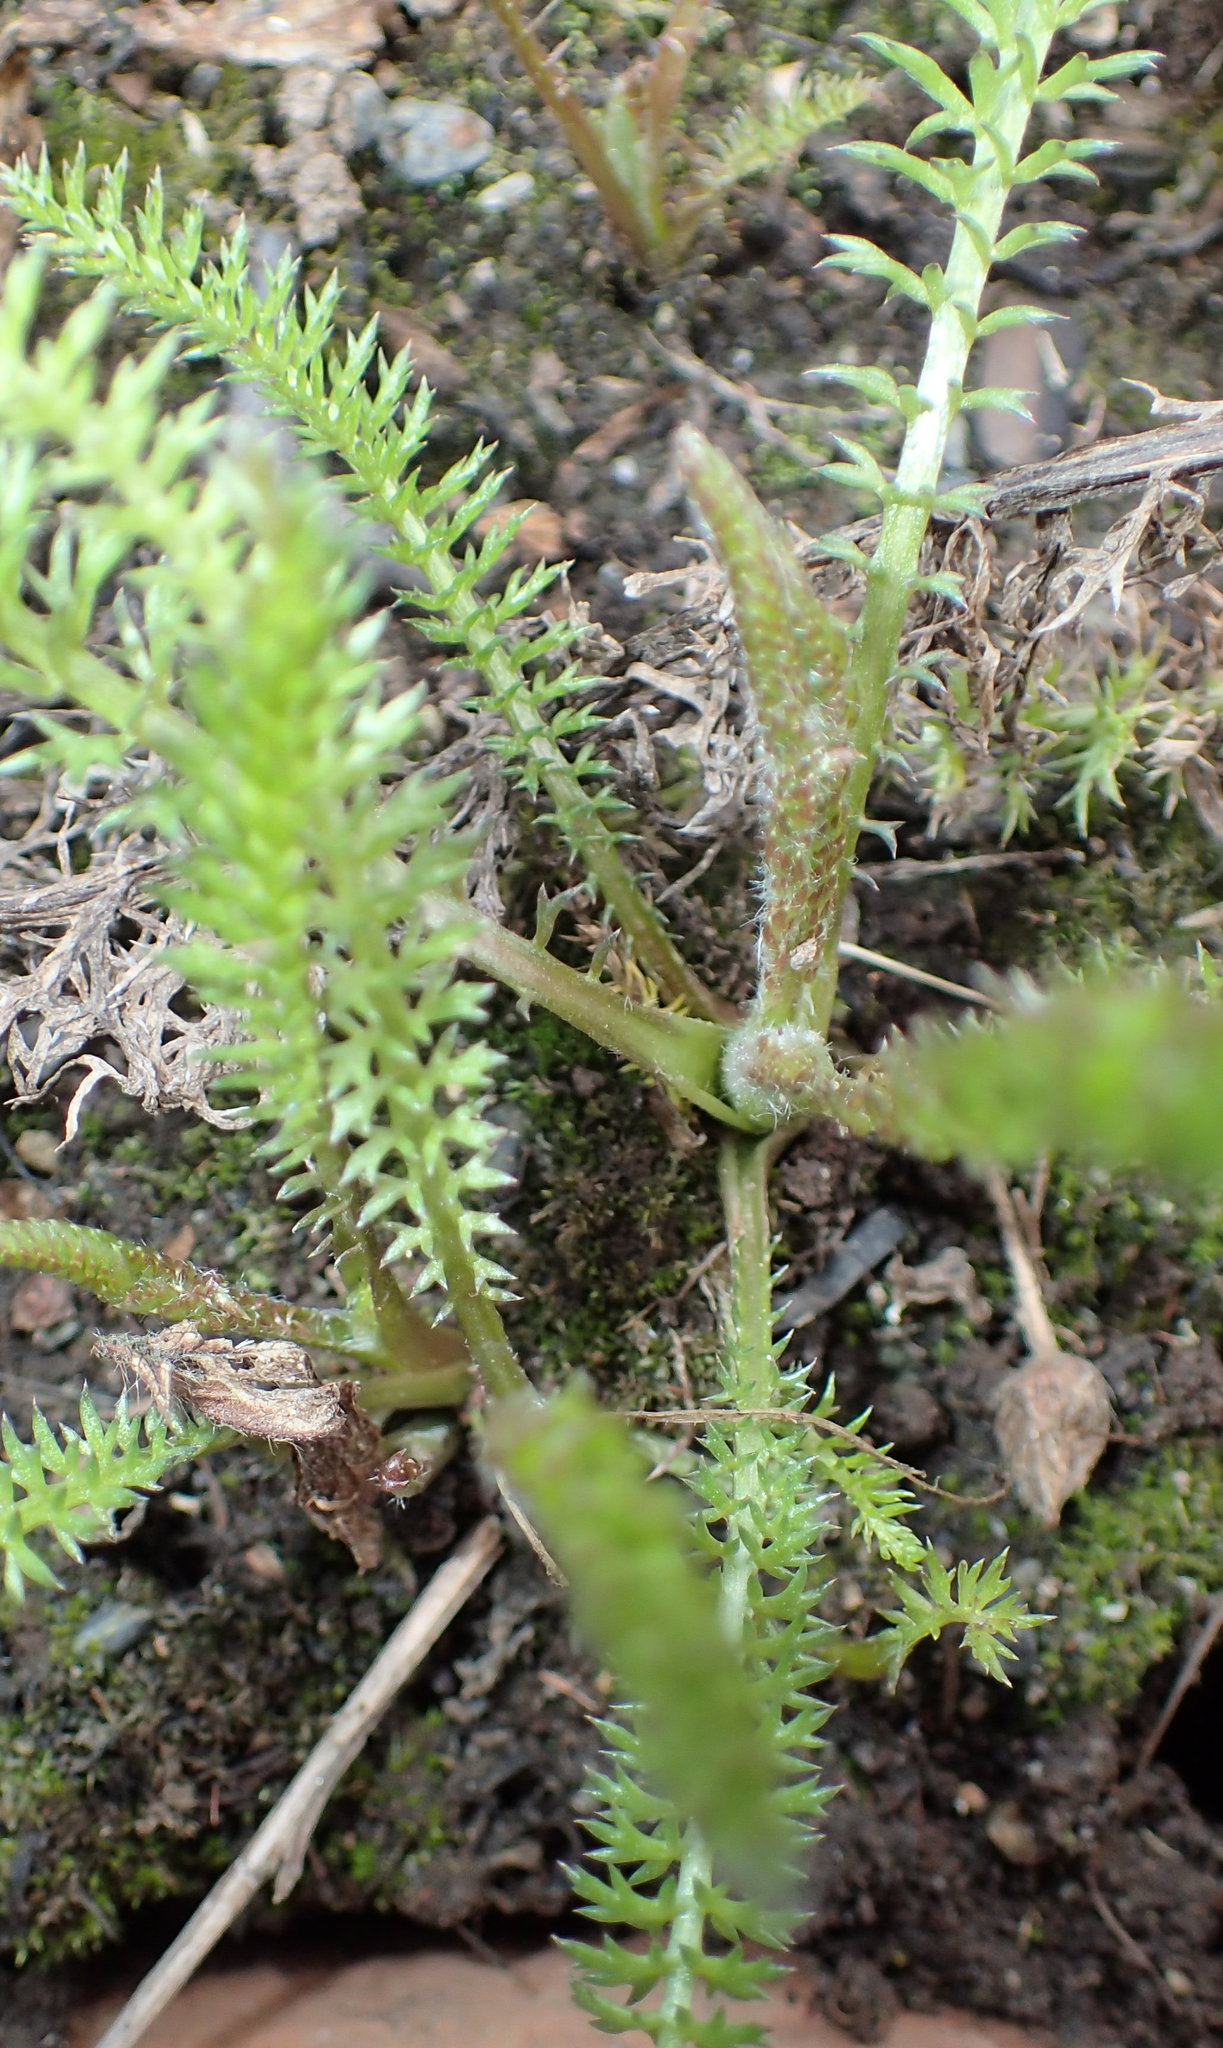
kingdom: Plantae
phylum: Tracheophyta
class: Magnoliopsida
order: Asterales
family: Asteraceae
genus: Achillea
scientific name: Achillea millefolium
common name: Yarrow
